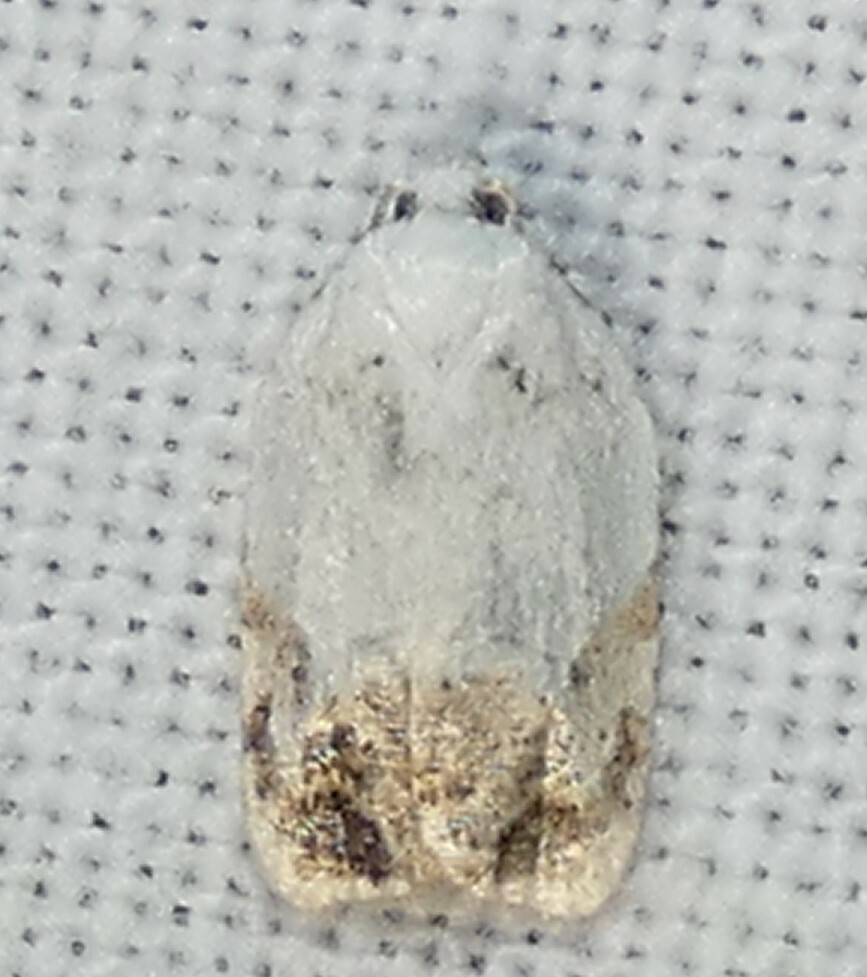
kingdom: Animalia
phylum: Arthropoda
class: Insecta
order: Lepidoptera
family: Tortricidae
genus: Acleris
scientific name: Acleris albinvia
